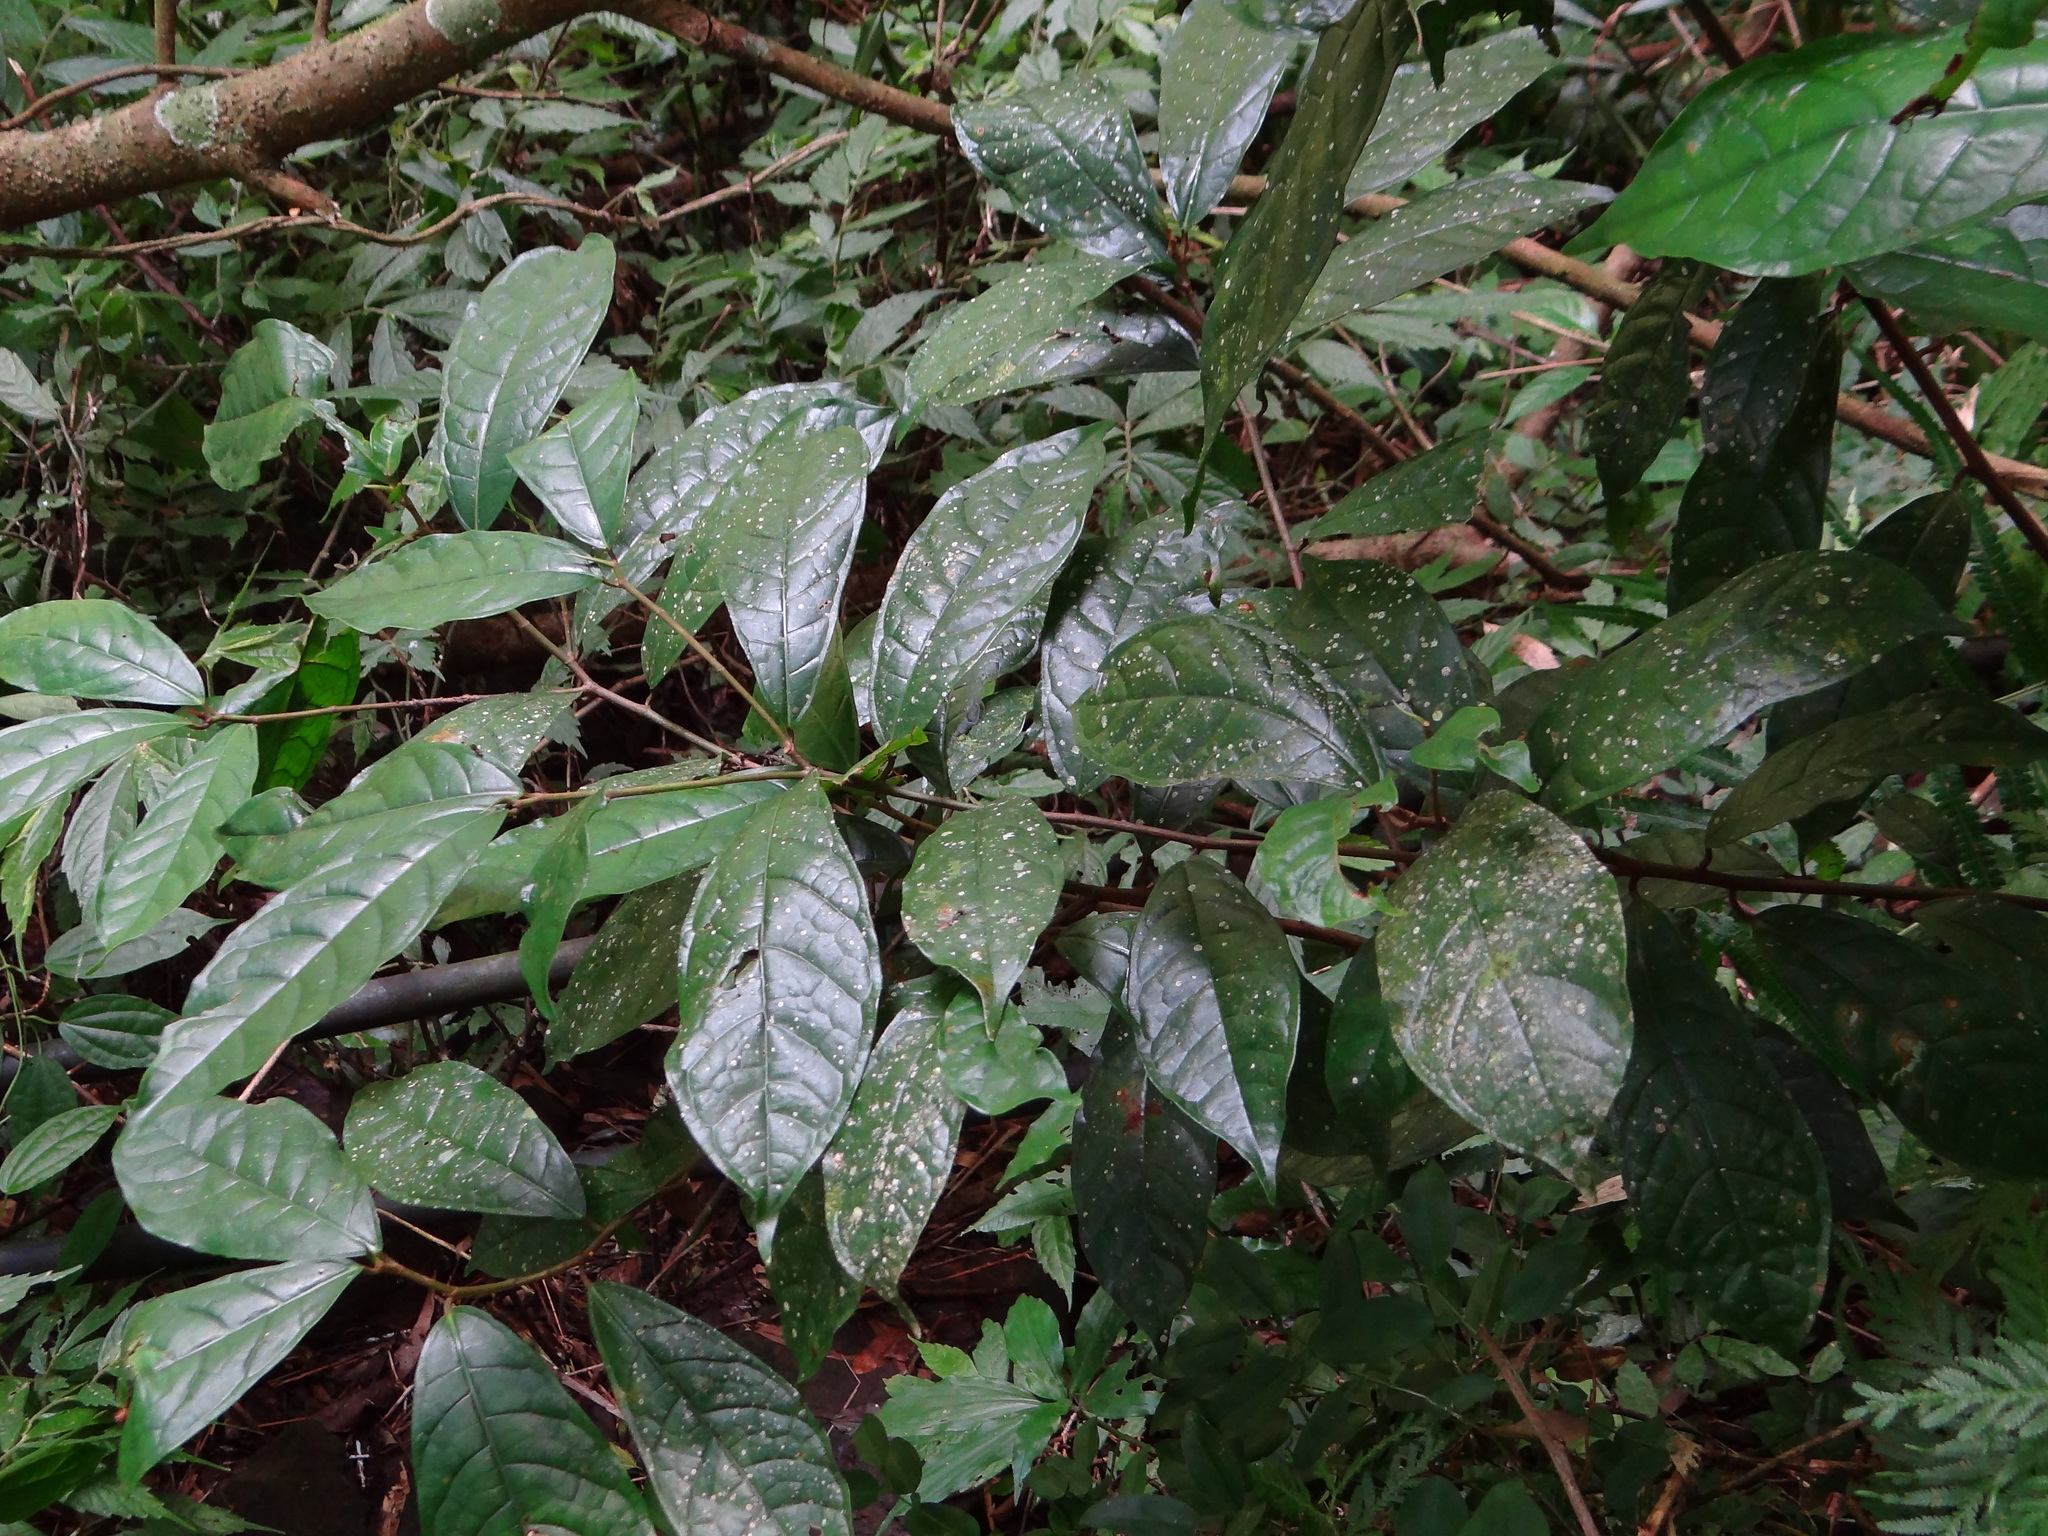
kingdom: Plantae
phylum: Tracheophyta
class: Magnoliopsida
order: Rosales
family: Moraceae
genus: Ficus
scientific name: Ficus nervosa
